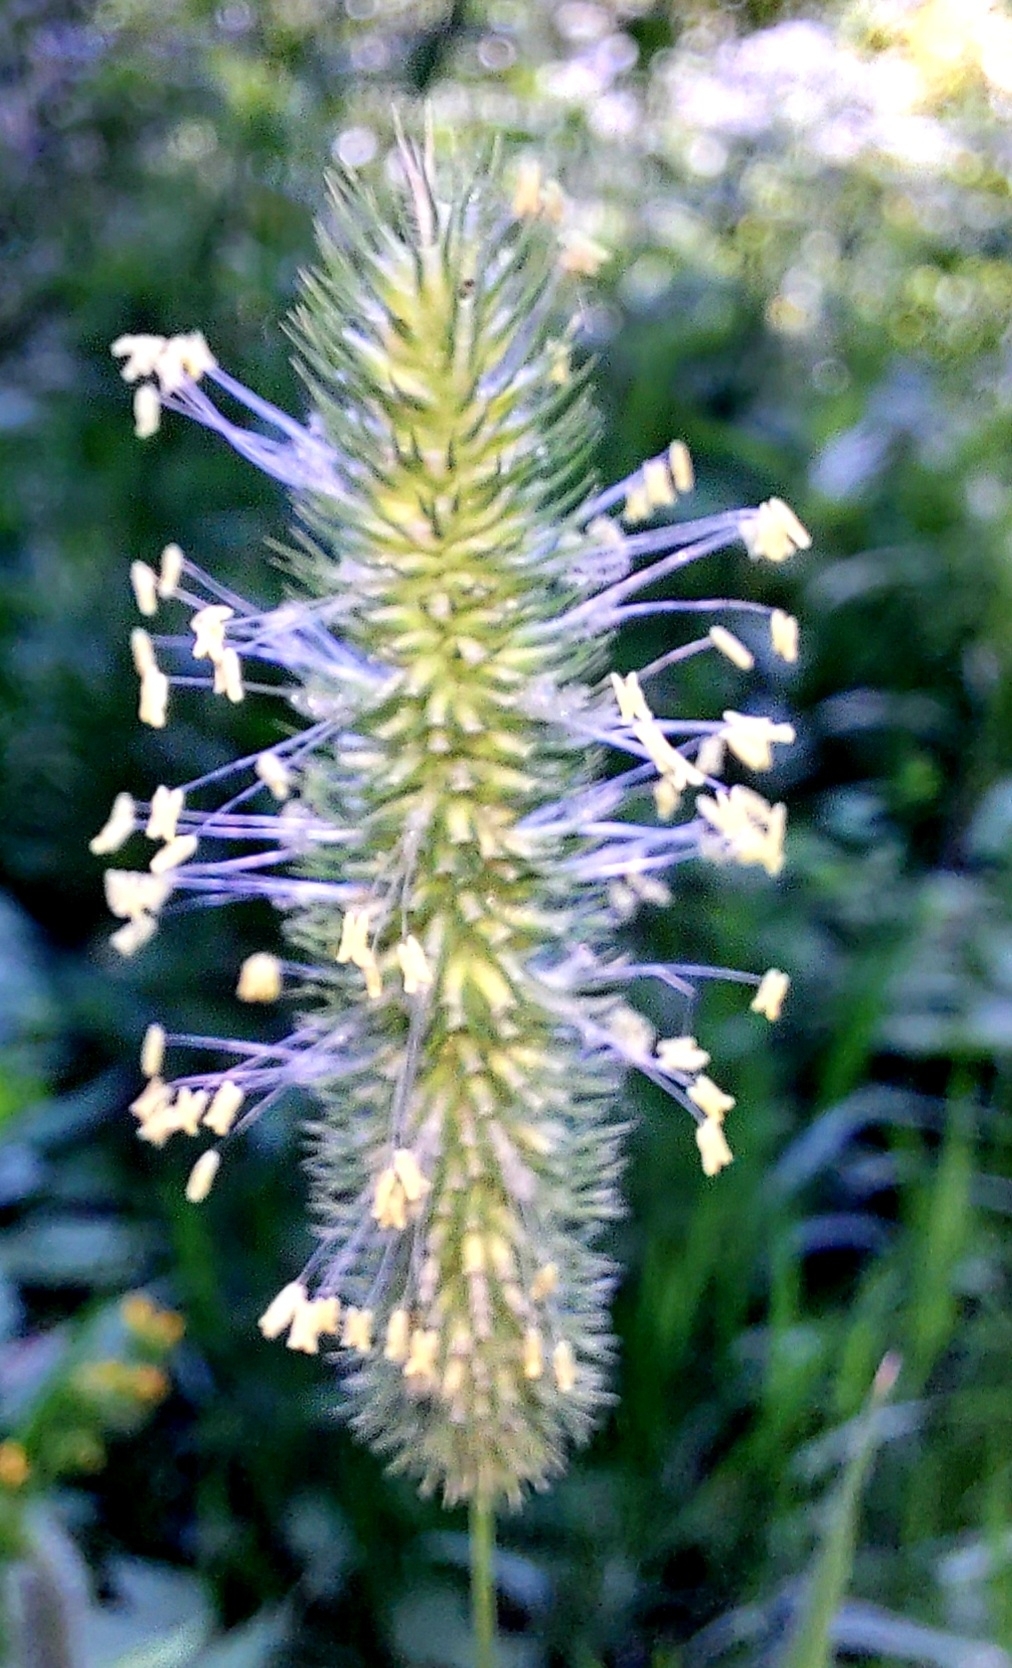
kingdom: Plantae
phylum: Tracheophyta
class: Liliopsida
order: Poales
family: Poaceae
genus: Phleum
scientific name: Phleum pratense
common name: Timothy grass
